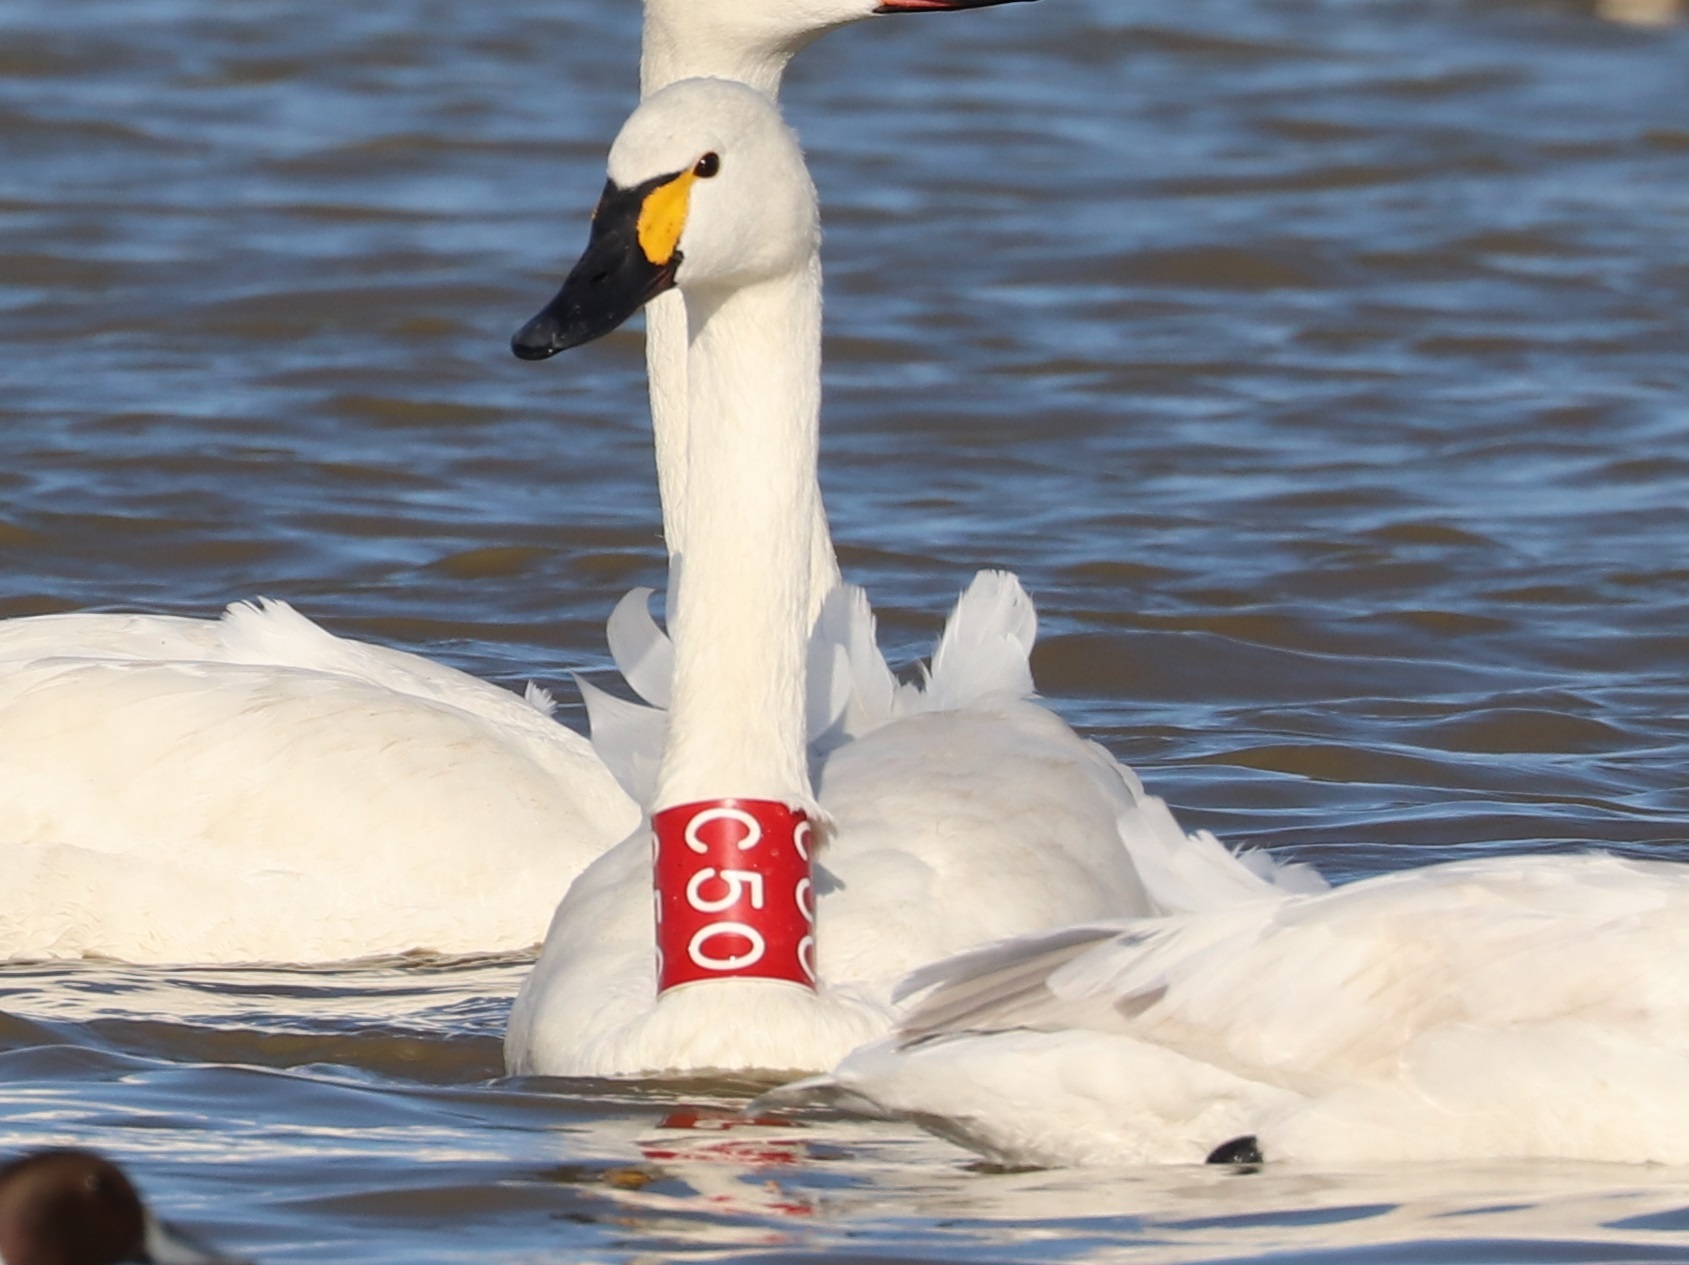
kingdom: Animalia
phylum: Chordata
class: Aves
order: Anseriformes
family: Anatidae
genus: Cygnus
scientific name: Cygnus columbianus
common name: Tundra swan
